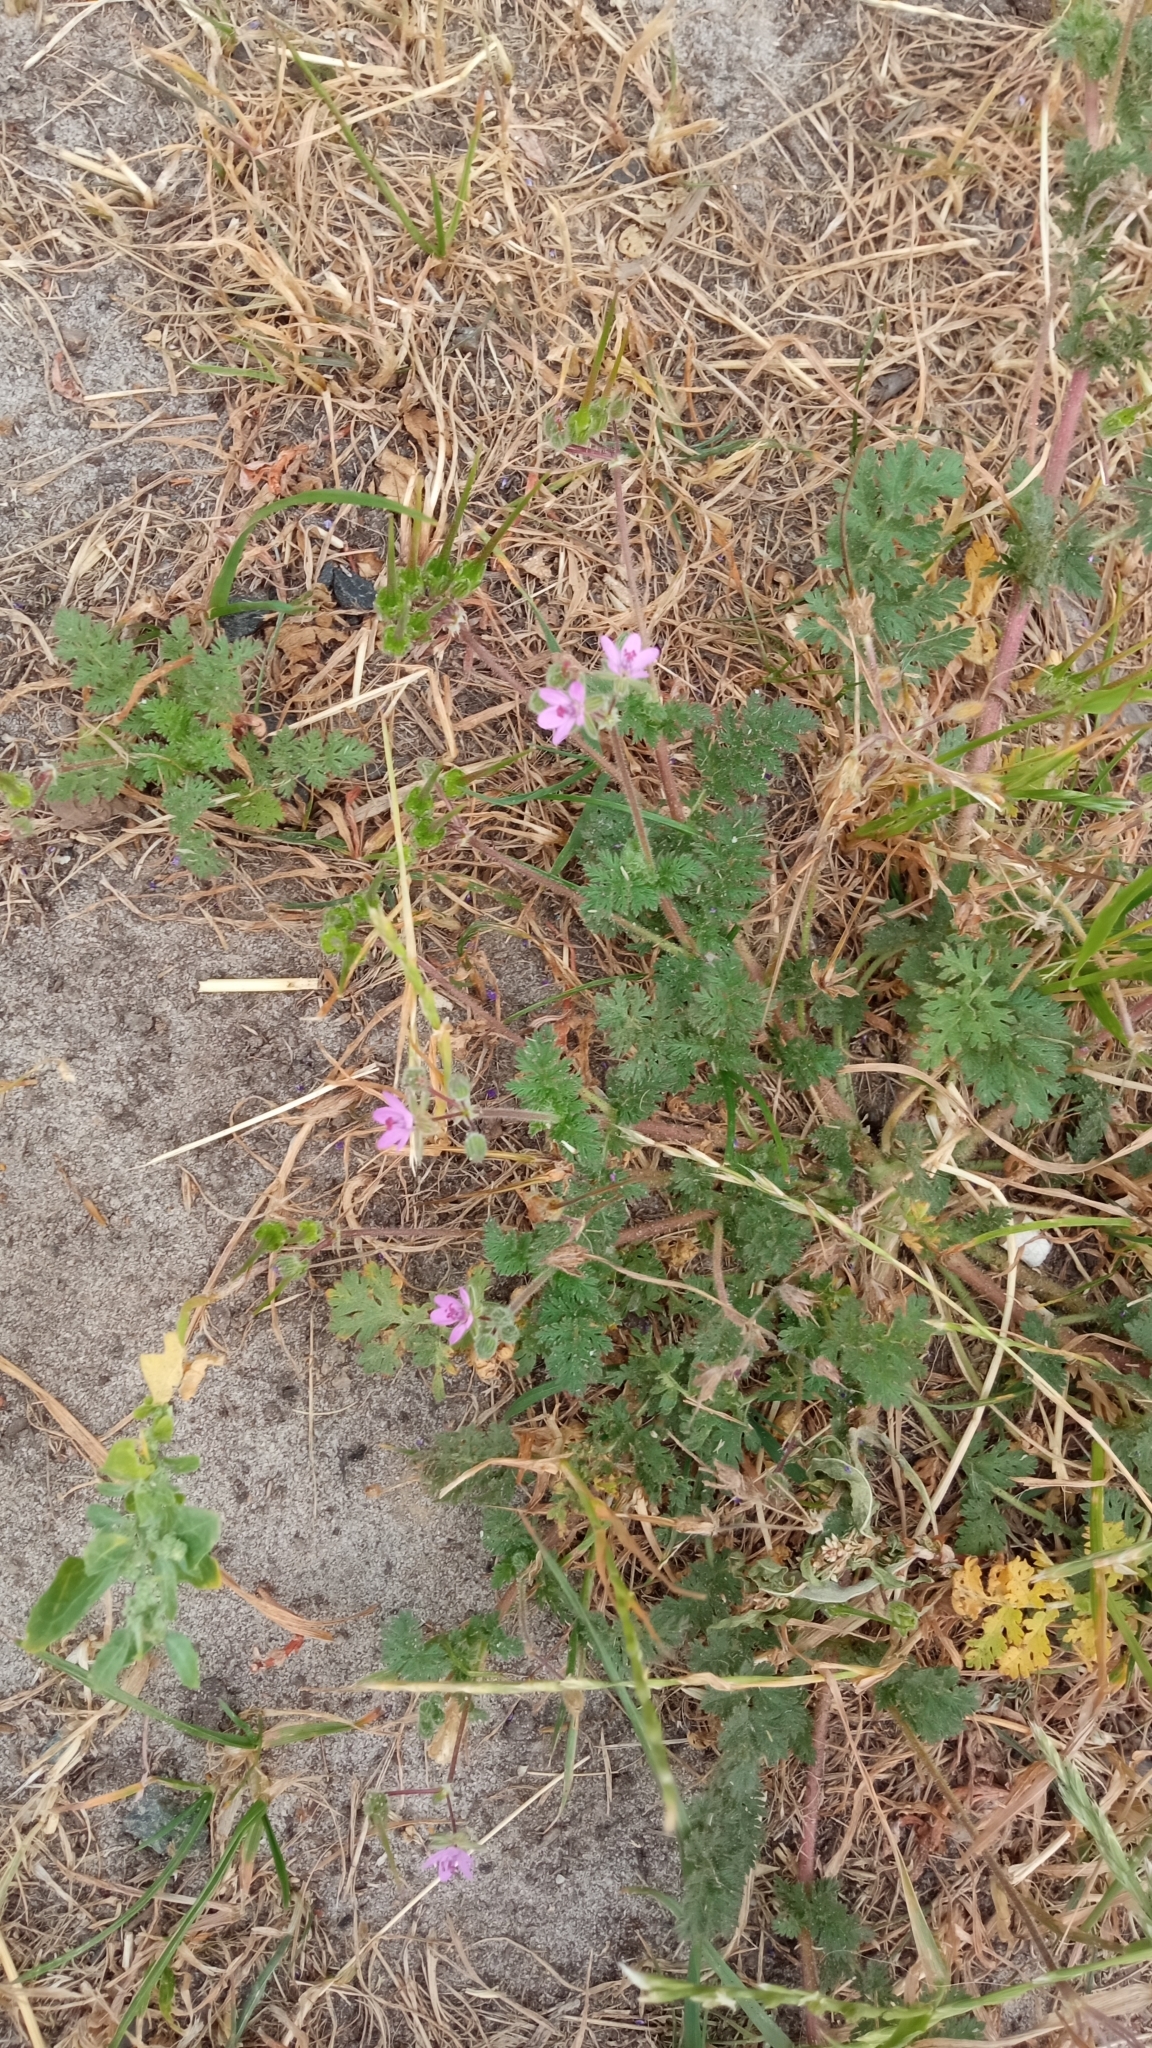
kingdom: Plantae
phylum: Tracheophyta
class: Magnoliopsida
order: Geraniales
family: Geraniaceae
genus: Erodium
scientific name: Erodium cicutarium
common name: Common stork's-bill
